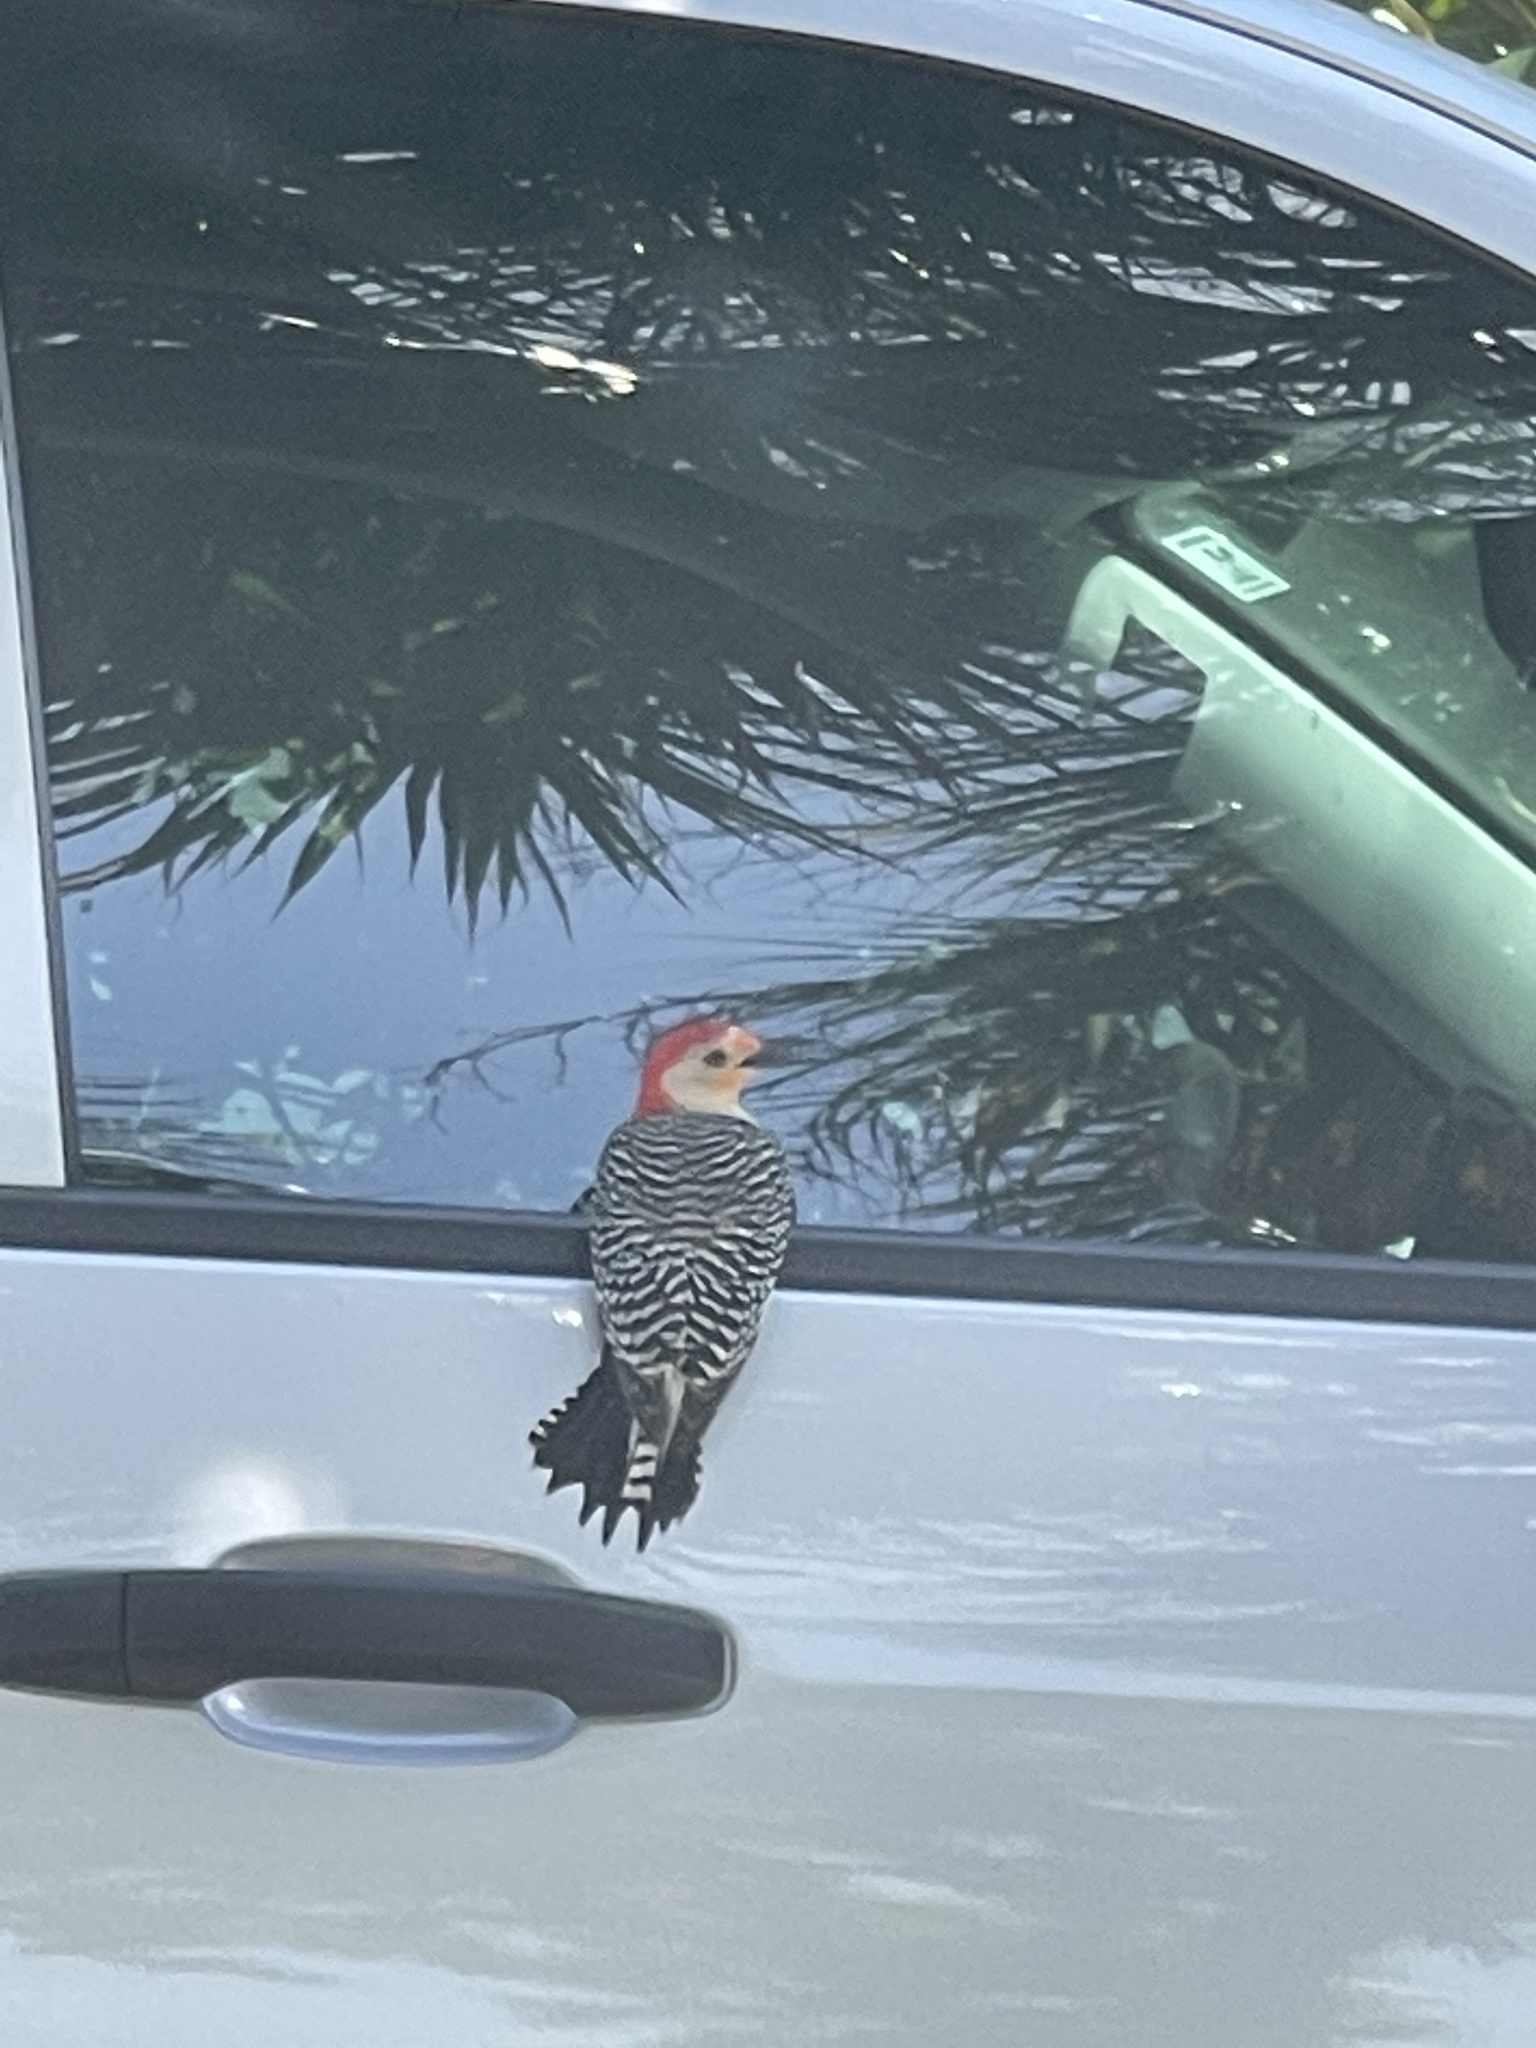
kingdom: Animalia
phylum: Chordata
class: Aves
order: Piciformes
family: Picidae
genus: Melanerpes
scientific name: Melanerpes carolinus
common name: Red-bellied woodpecker
